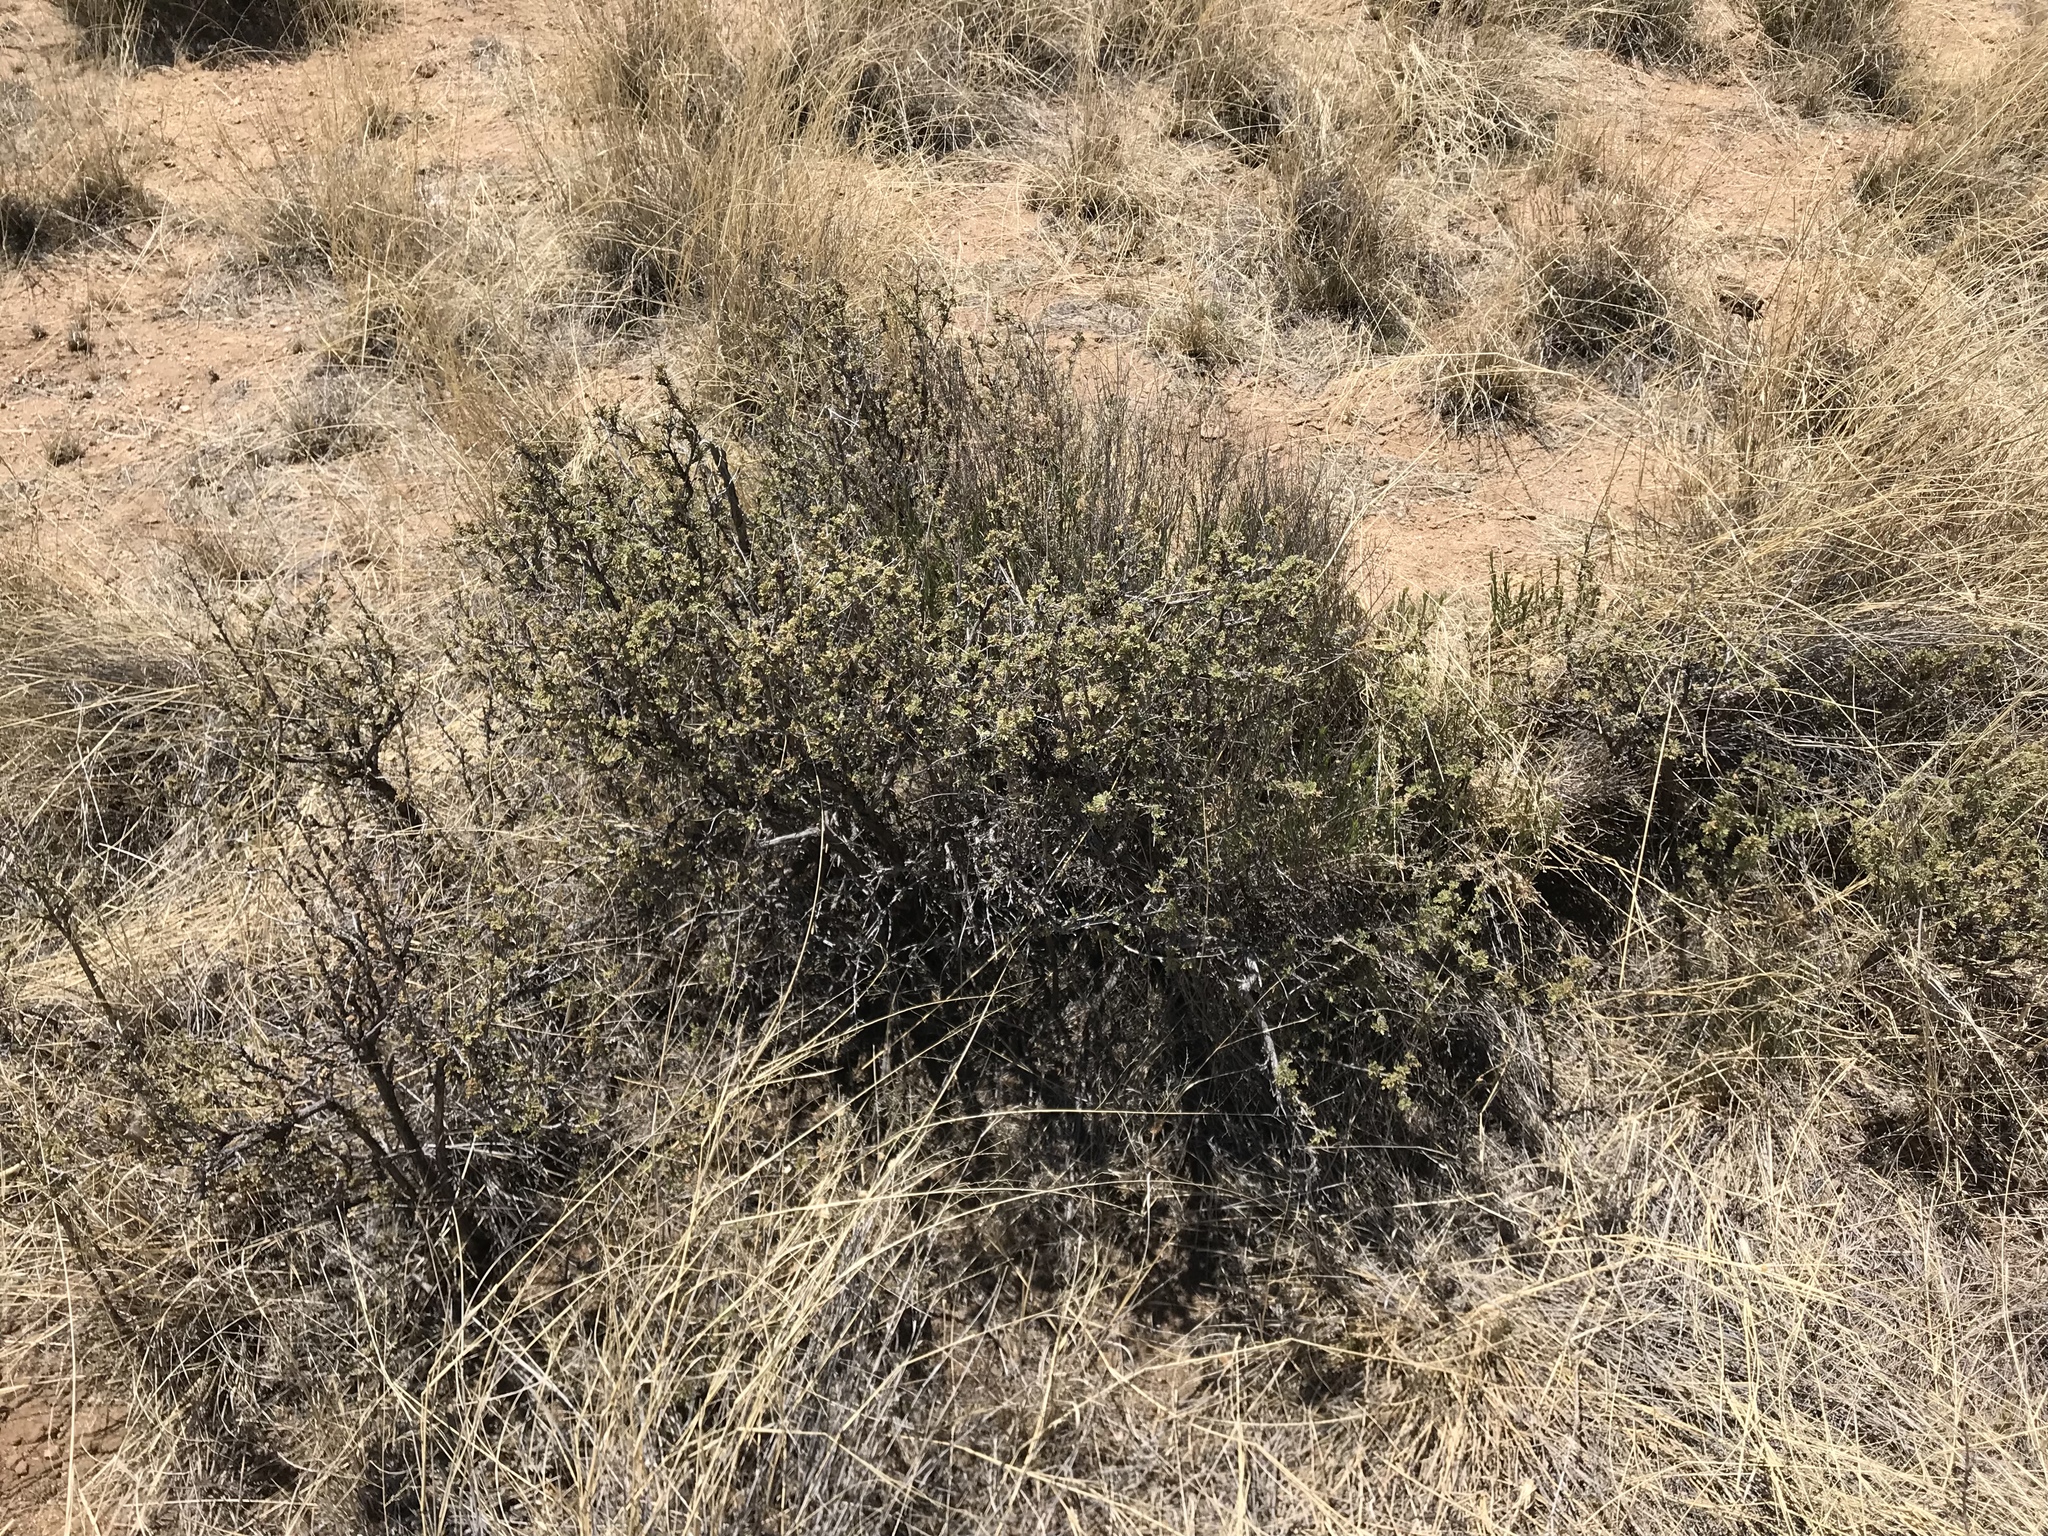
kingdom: Plantae
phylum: Tracheophyta
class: Magnoliopsida
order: Rosales
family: Rosaceae
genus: Fallugia
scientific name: Fallugia paradoxa
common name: Apache-plume
